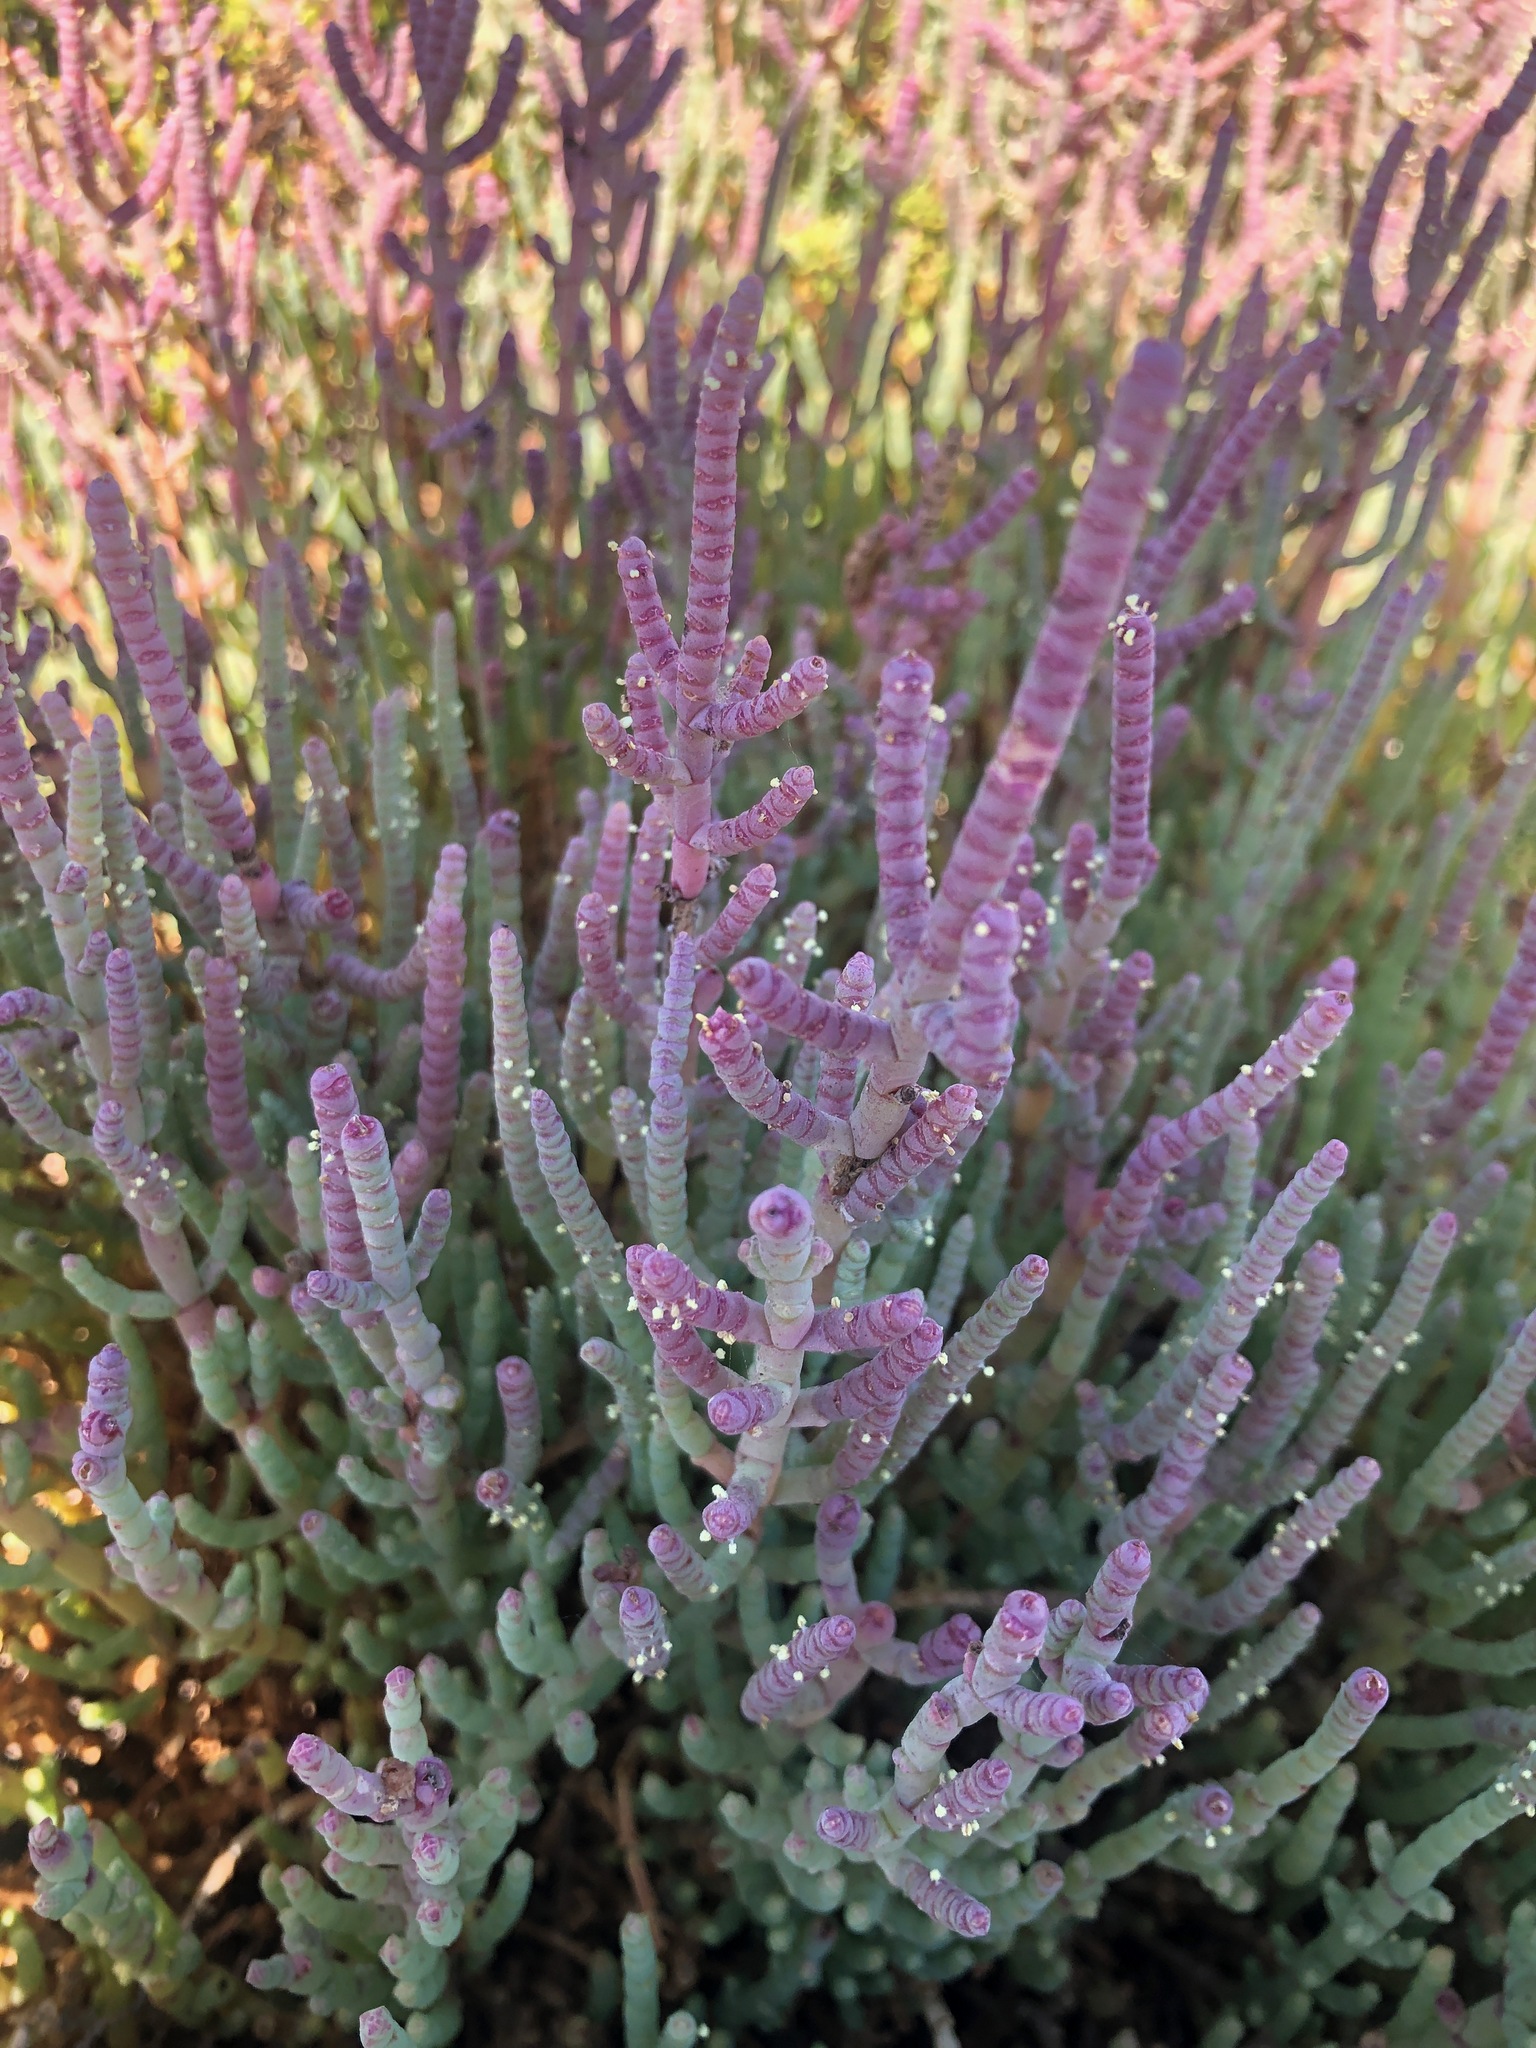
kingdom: Plantae
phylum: Tracheophyta
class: Magnoliopsida
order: Caryophyllales
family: Amaranthaceae
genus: Salicornia
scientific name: Salicornia pillansii
